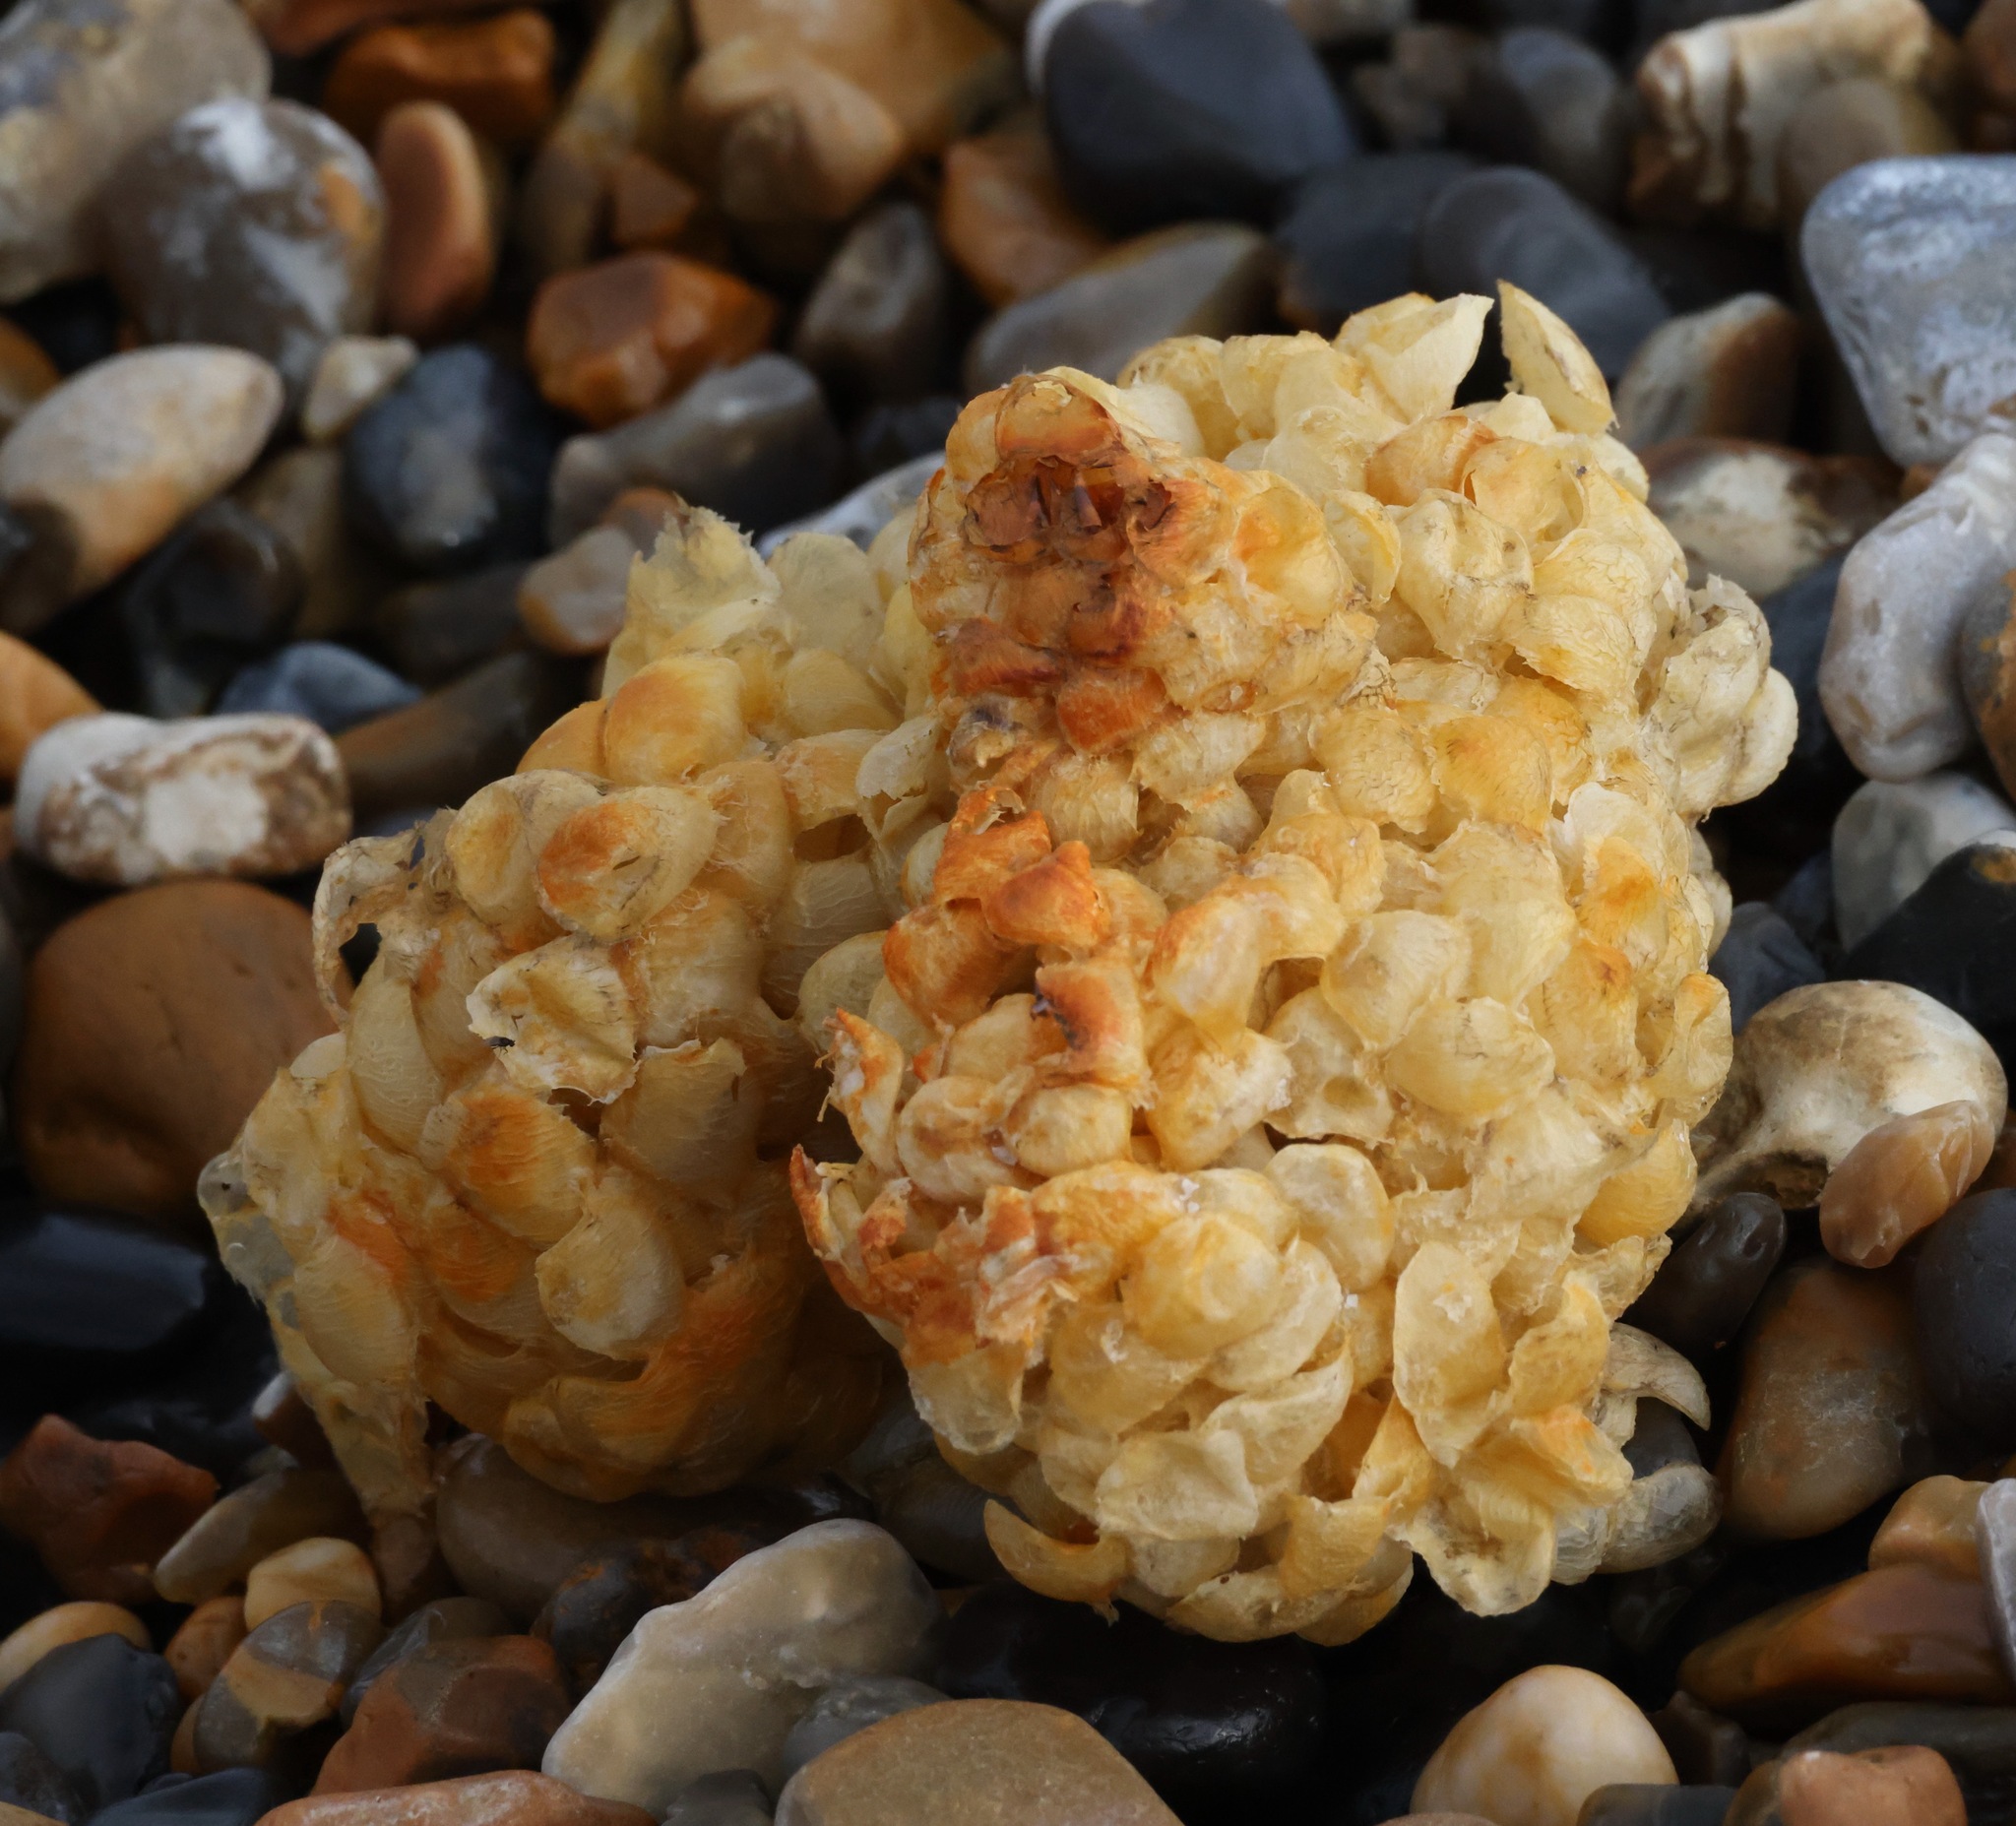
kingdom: Animalia
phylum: Mollusca
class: Gastropoda
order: Neogastropoda
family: Buccinidae
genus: Buccinum
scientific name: Buccinum undatum
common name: Common whelk
